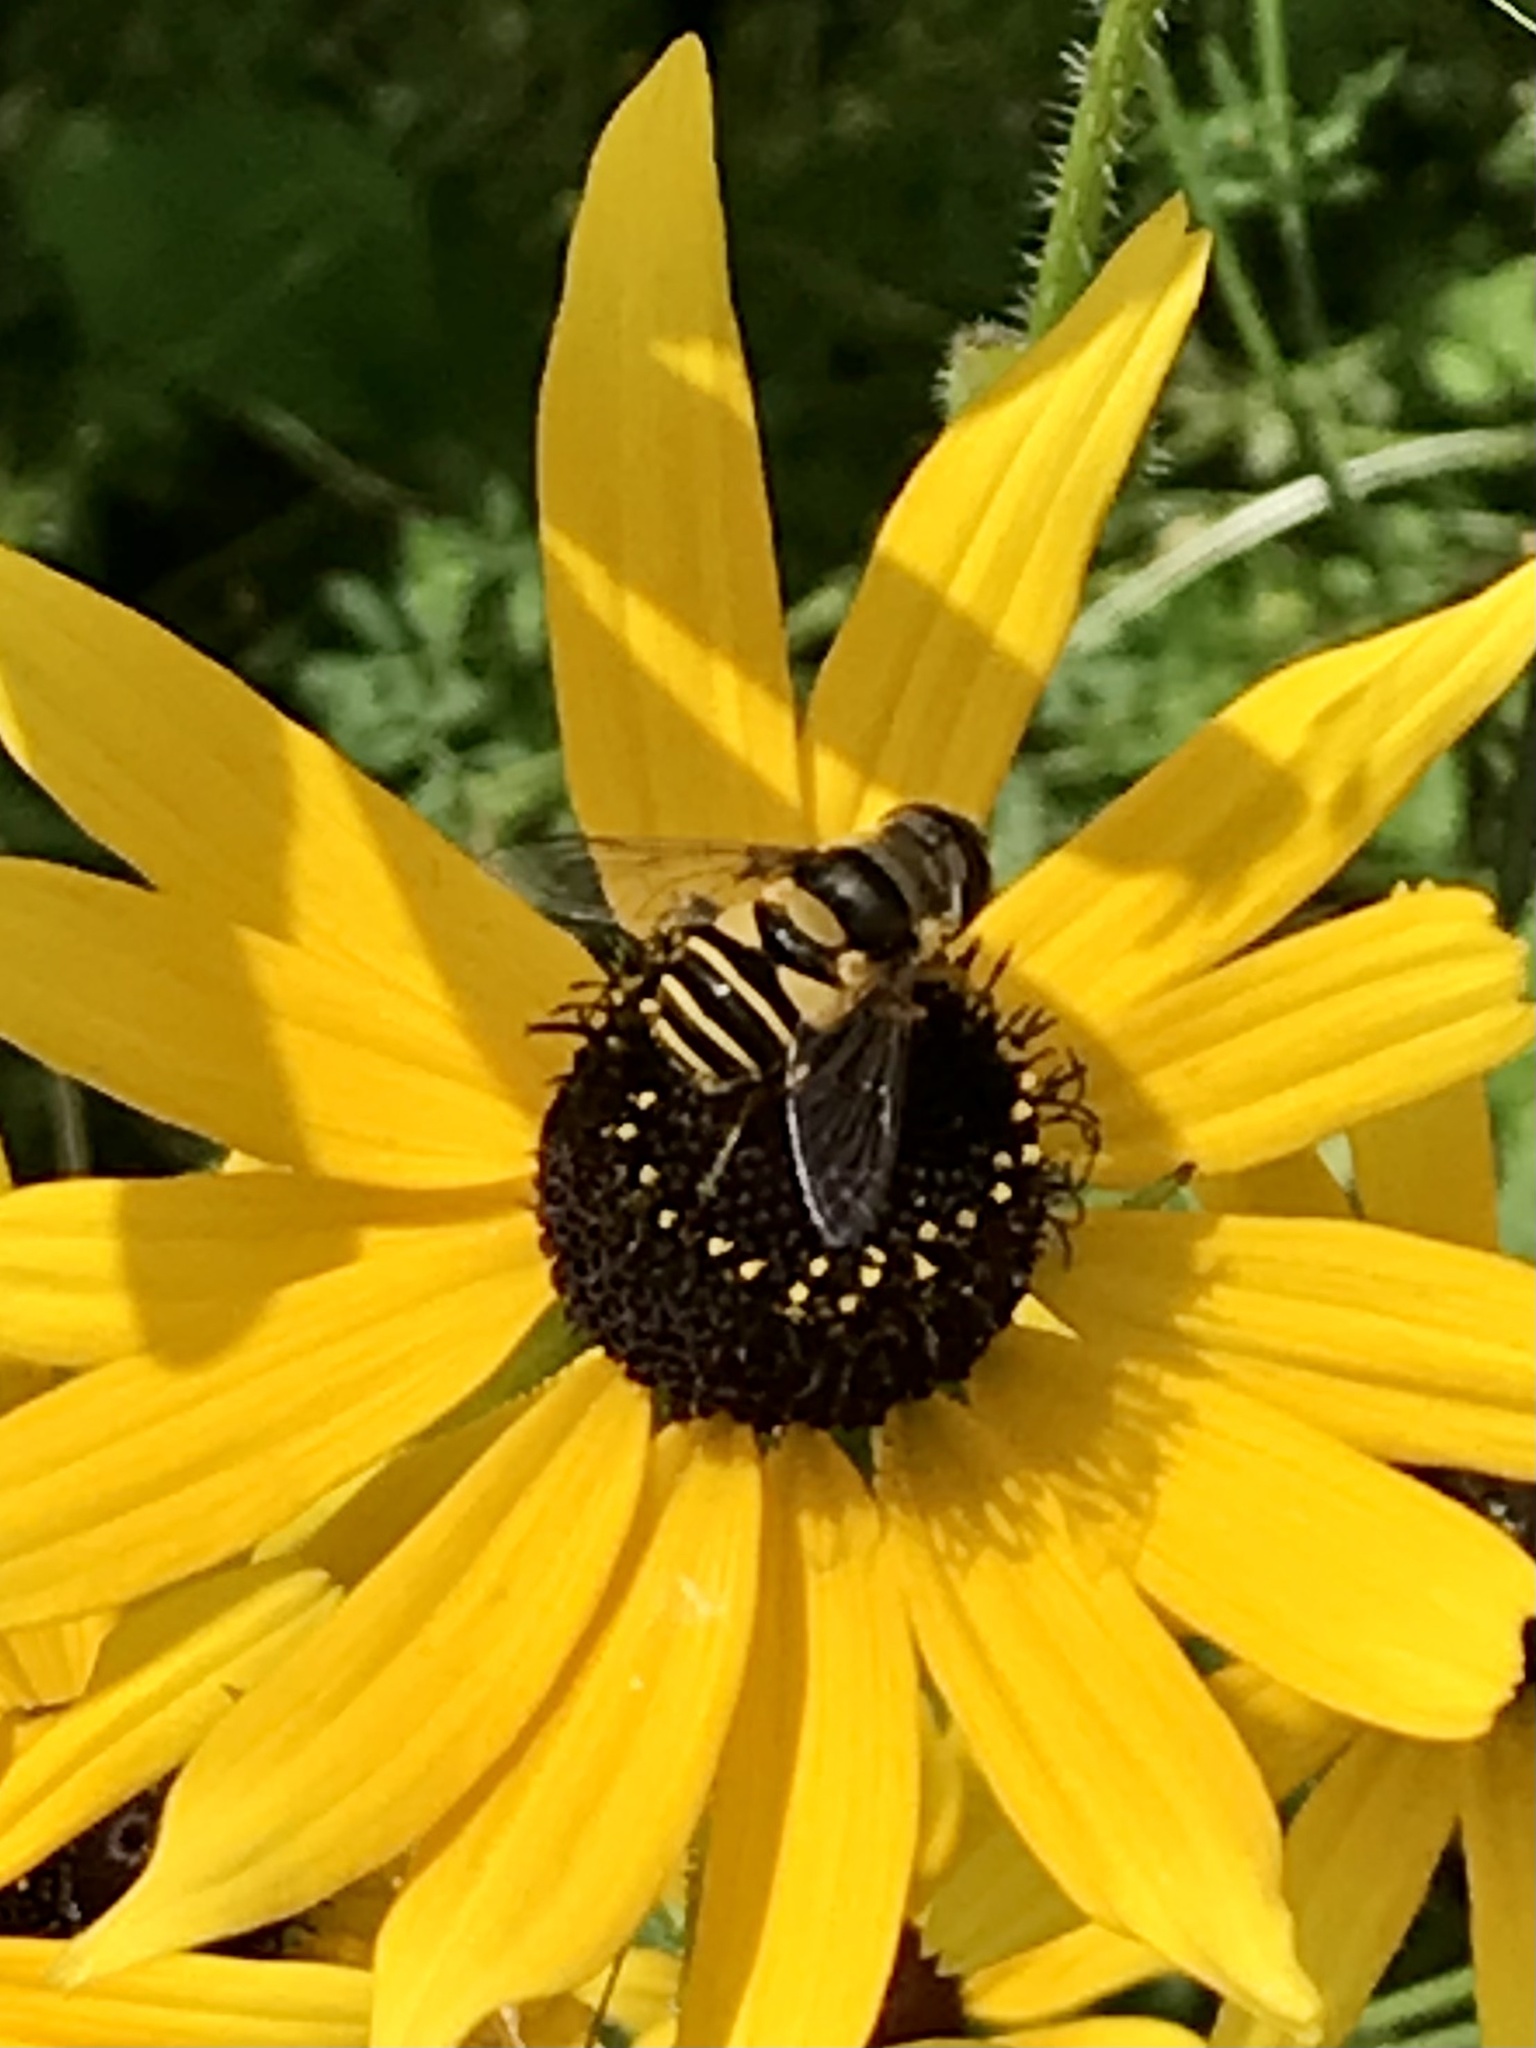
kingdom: Animalia
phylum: Arthropoda
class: Insecta
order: Diptera
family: Syrphidae
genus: Eristalis
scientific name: Eristalis transversa
